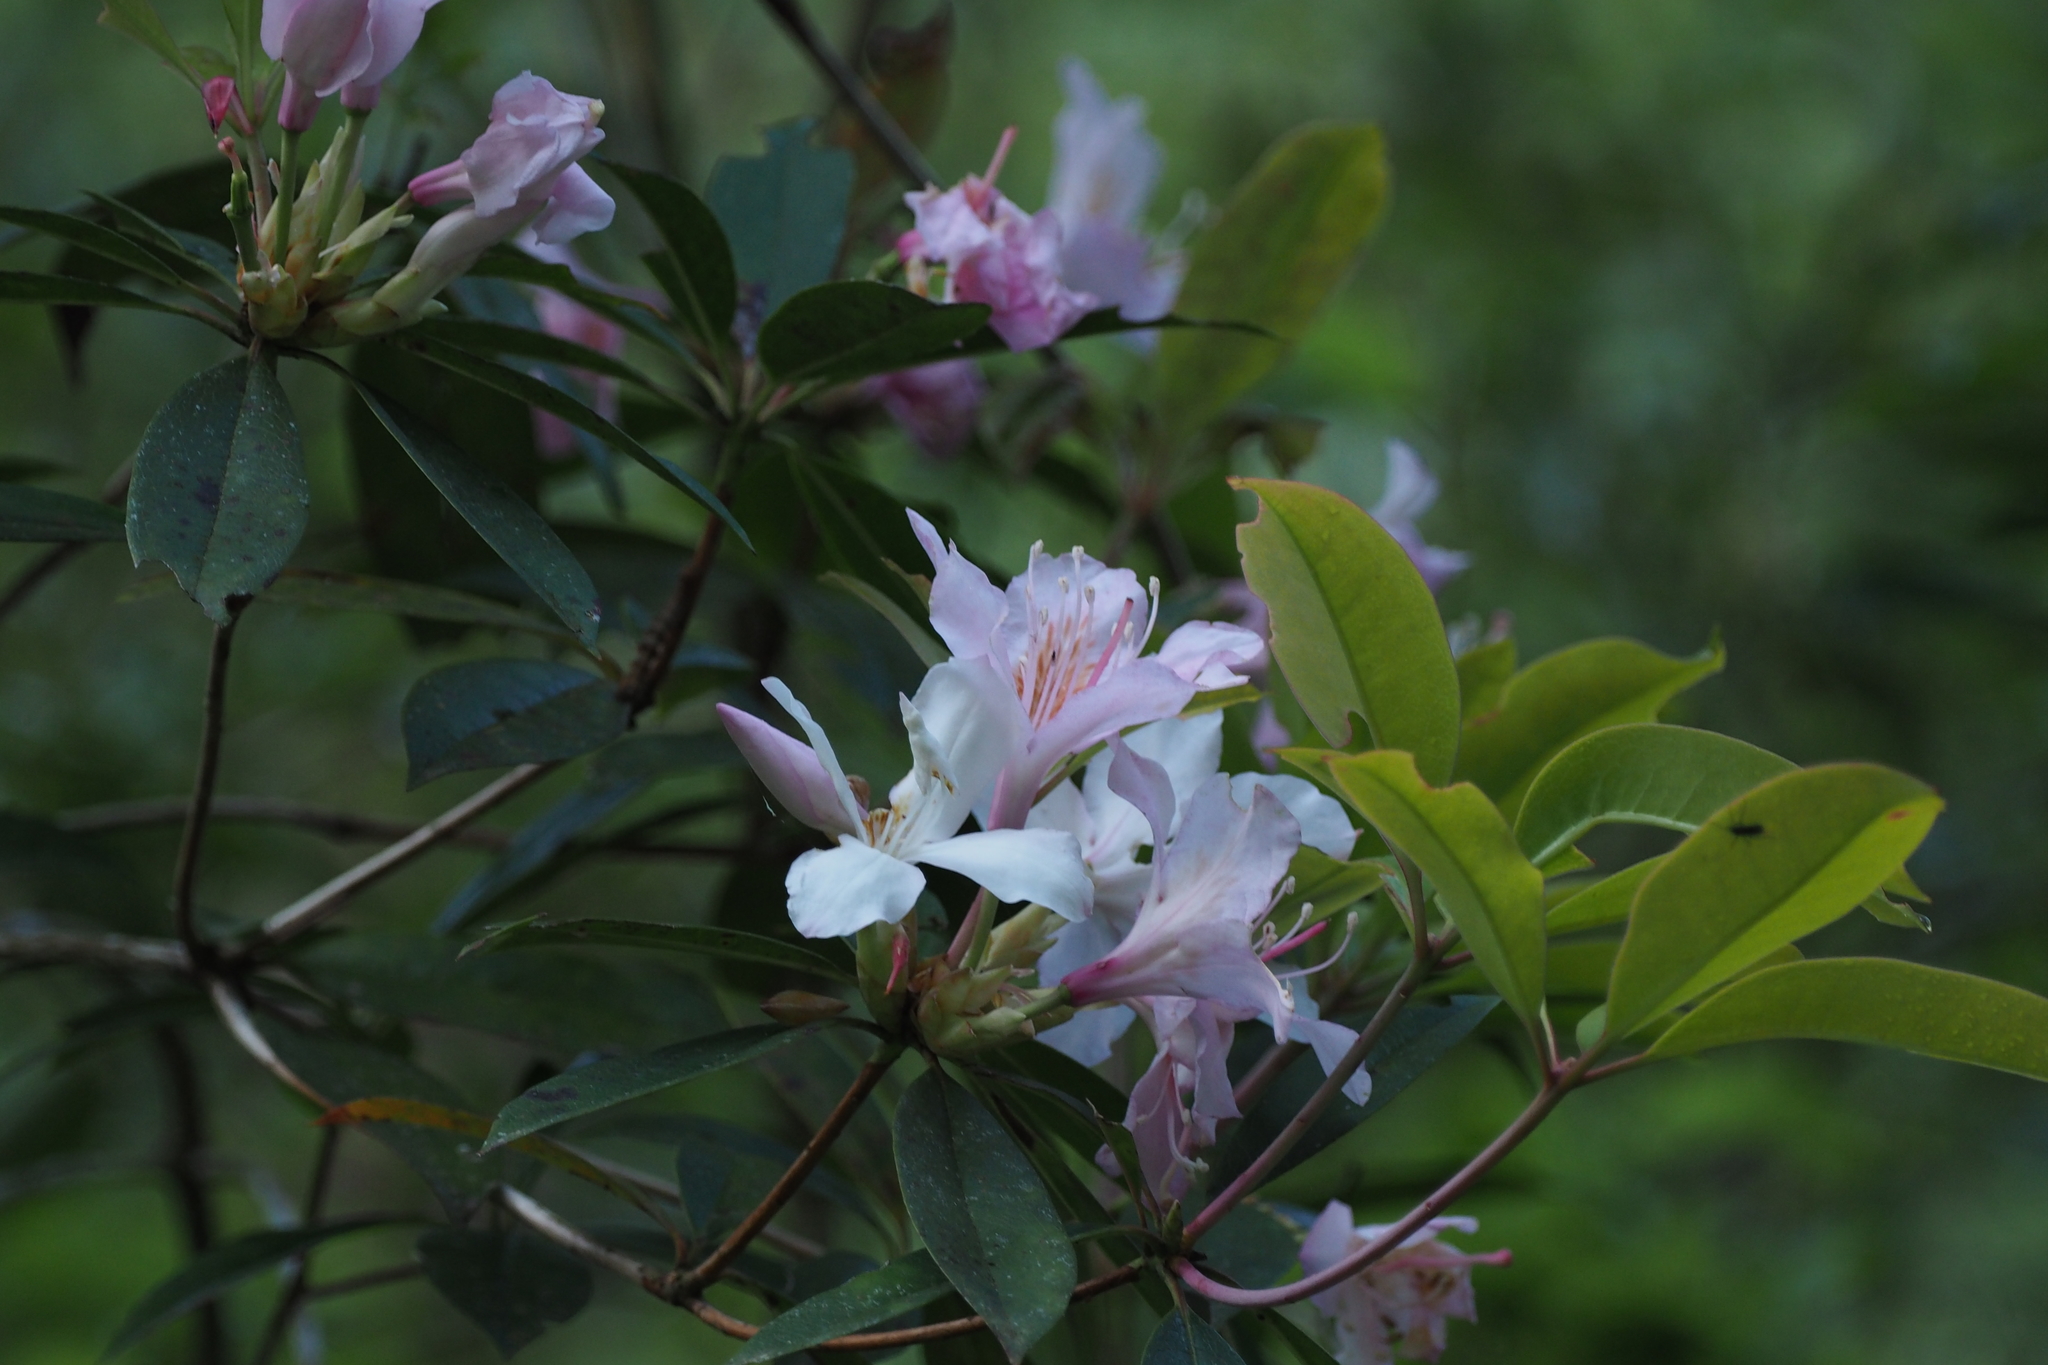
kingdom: Plantae
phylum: Tracheophyta
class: Magnoliopsida
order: Ericales
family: Ericaceae
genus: Rhododendron
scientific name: Rhododendron latoucheae
